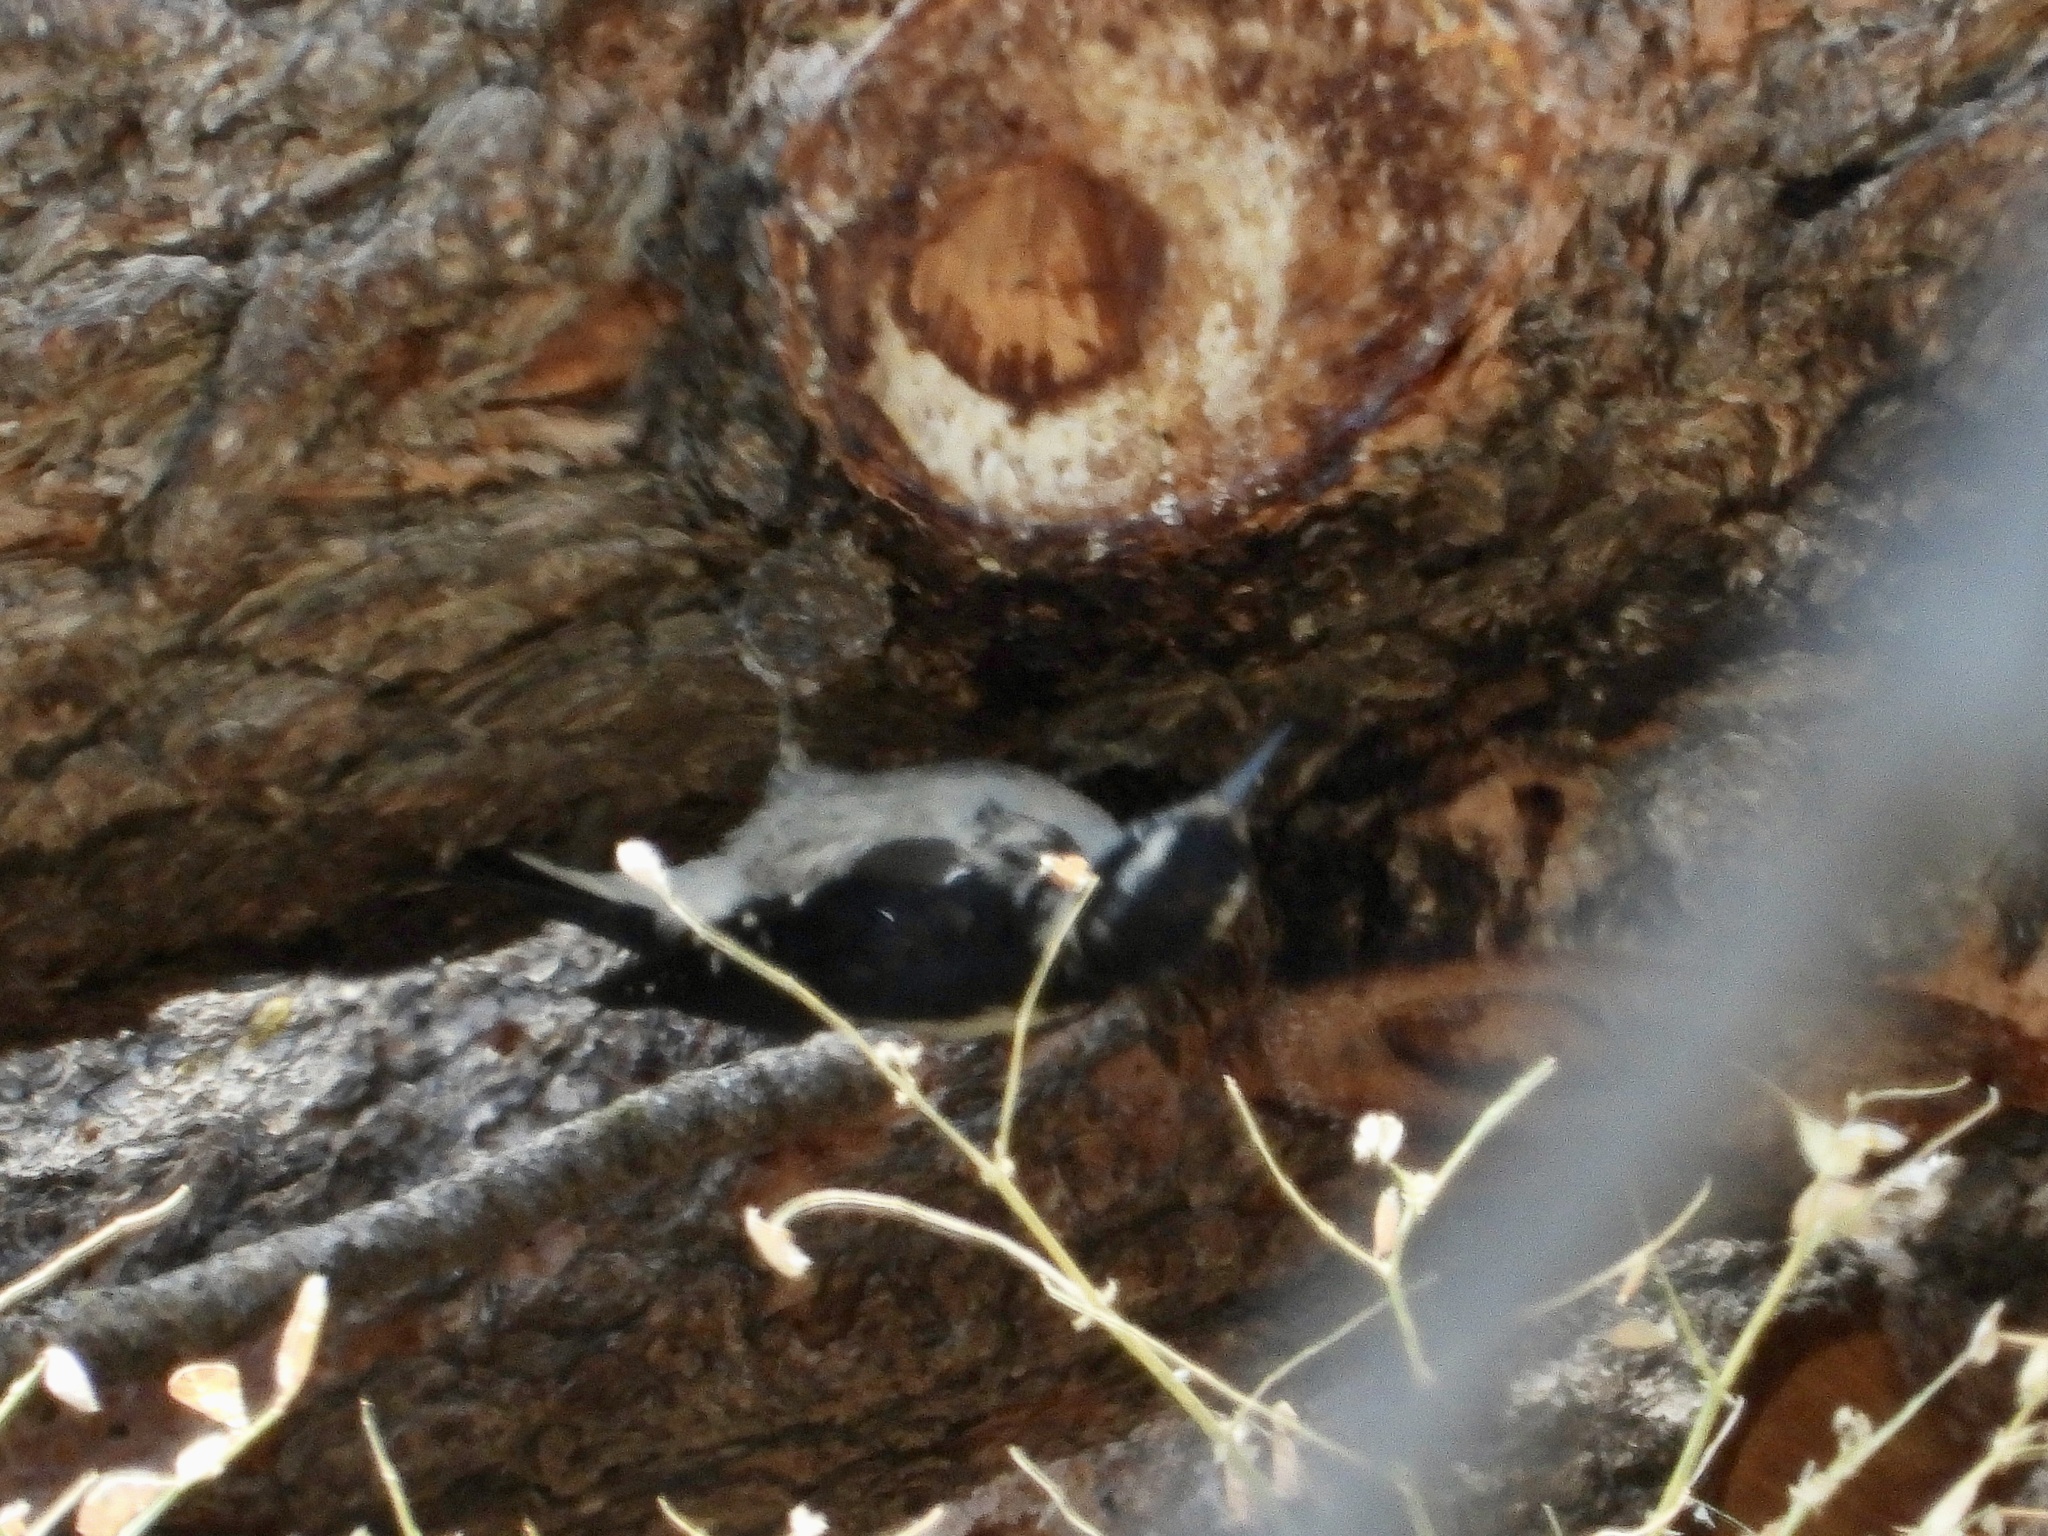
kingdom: Animalia
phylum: Chordata
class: Aves
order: Piciformes
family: Picidae
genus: Leuconotopicus
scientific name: Leuconotopicus villosus
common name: Hairy woodpecker
